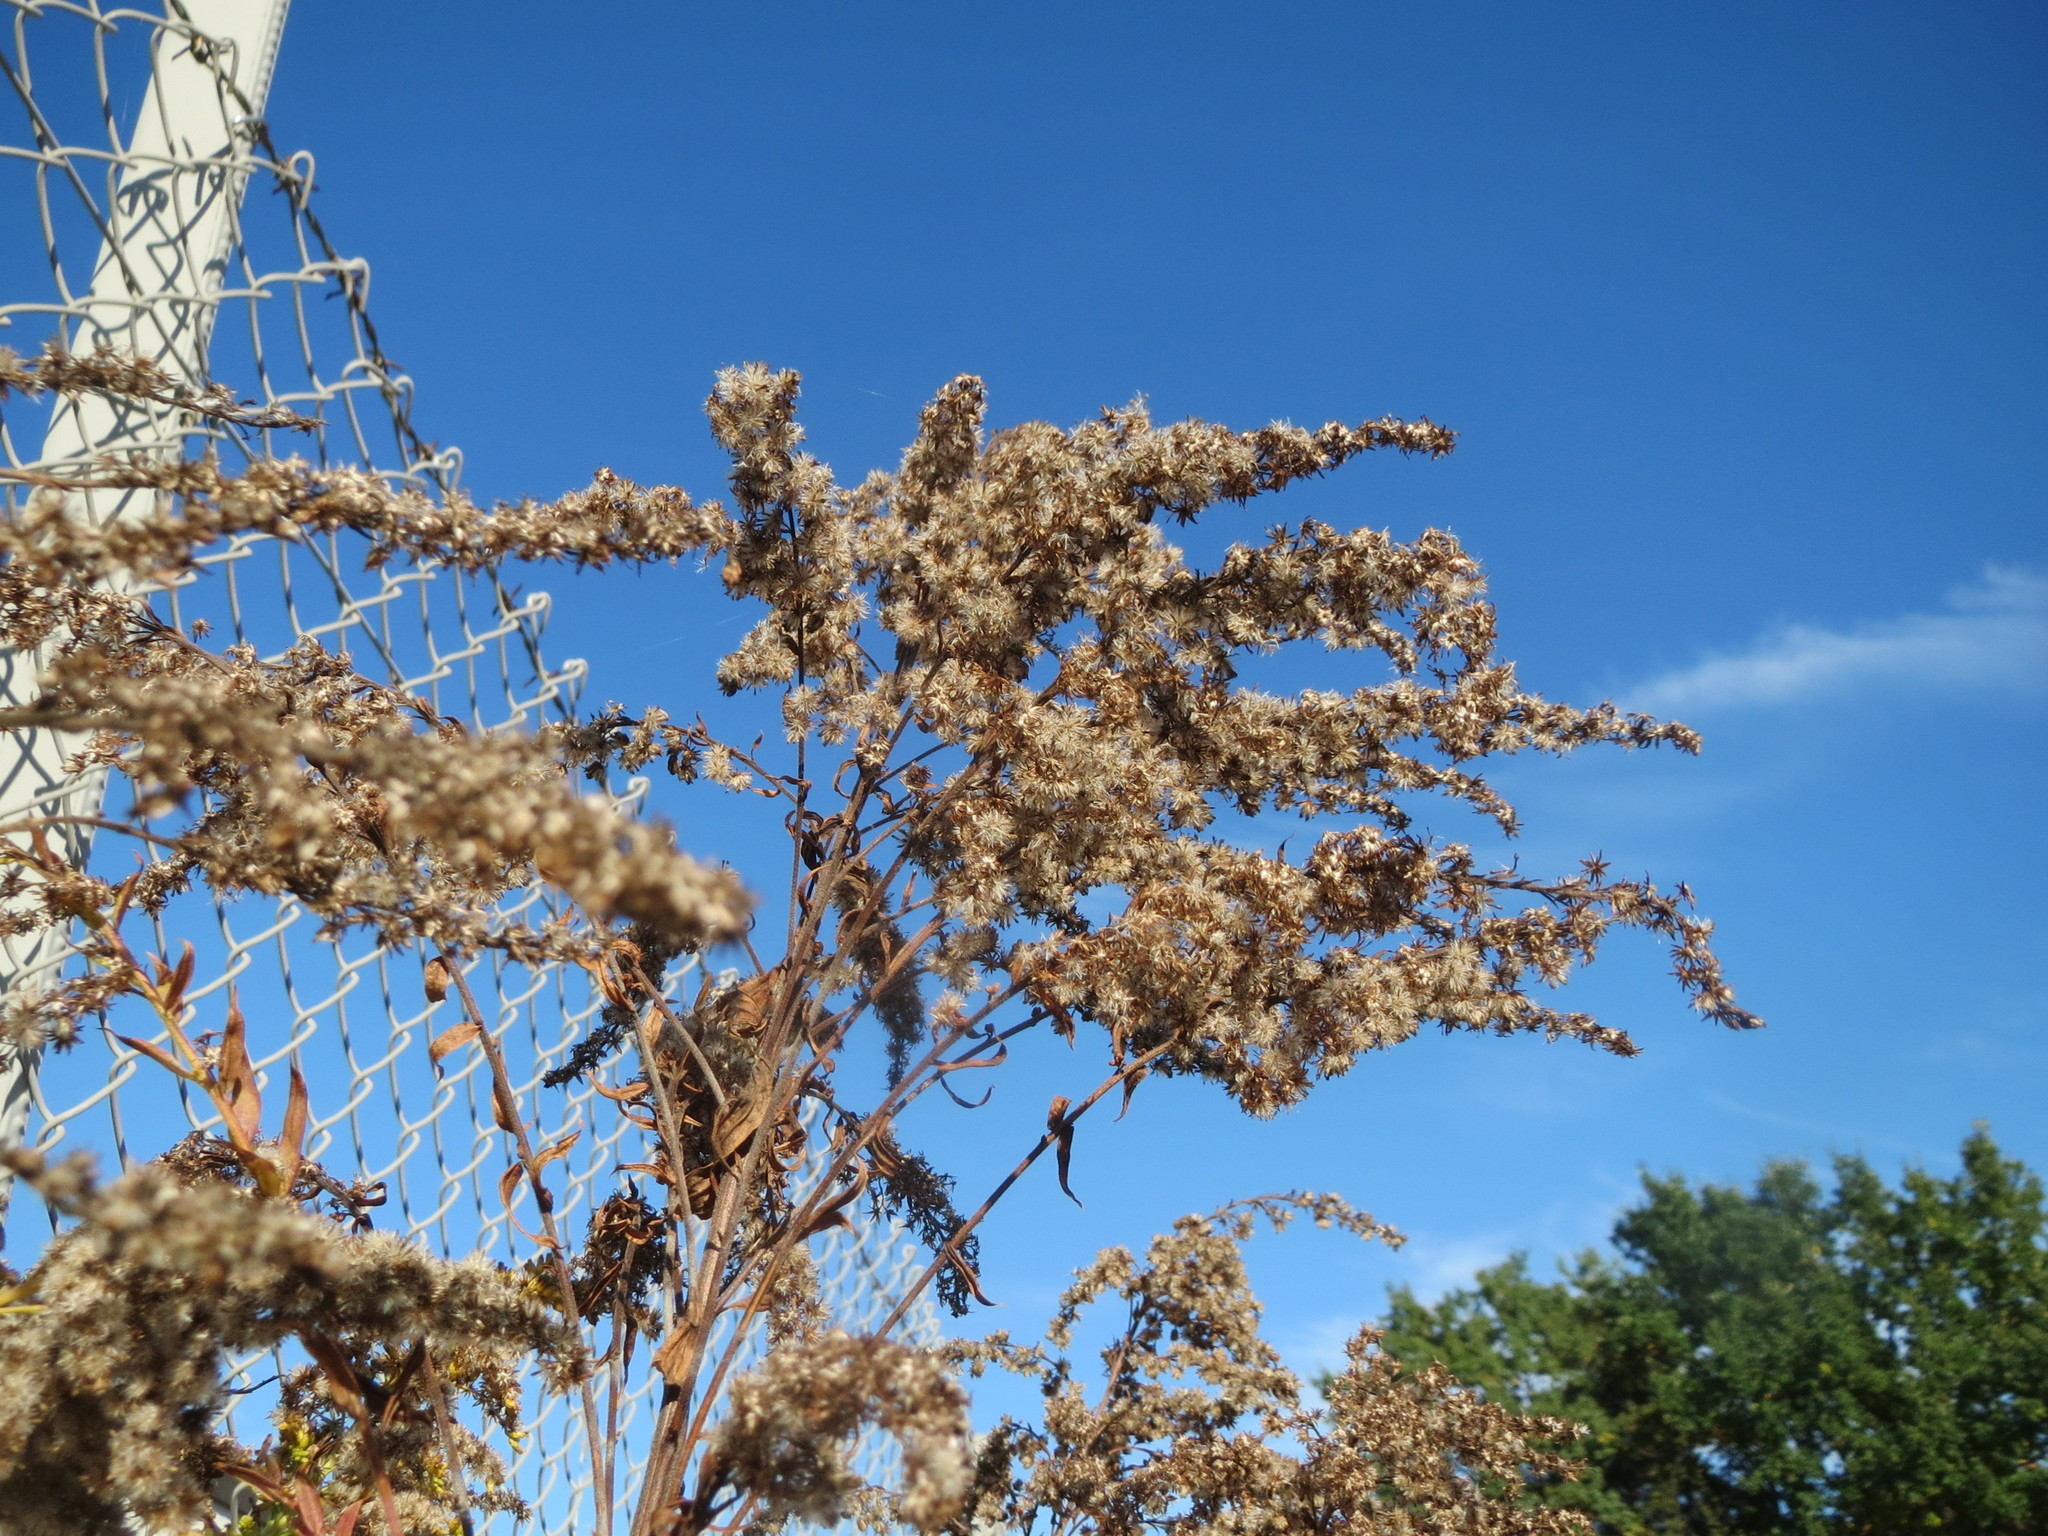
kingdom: Plantae
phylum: Tracheophyta
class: Magnoliopsida
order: Asterales
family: Asteraceae
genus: Solidago
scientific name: Solidago canadensis
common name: Canada goldenrod
